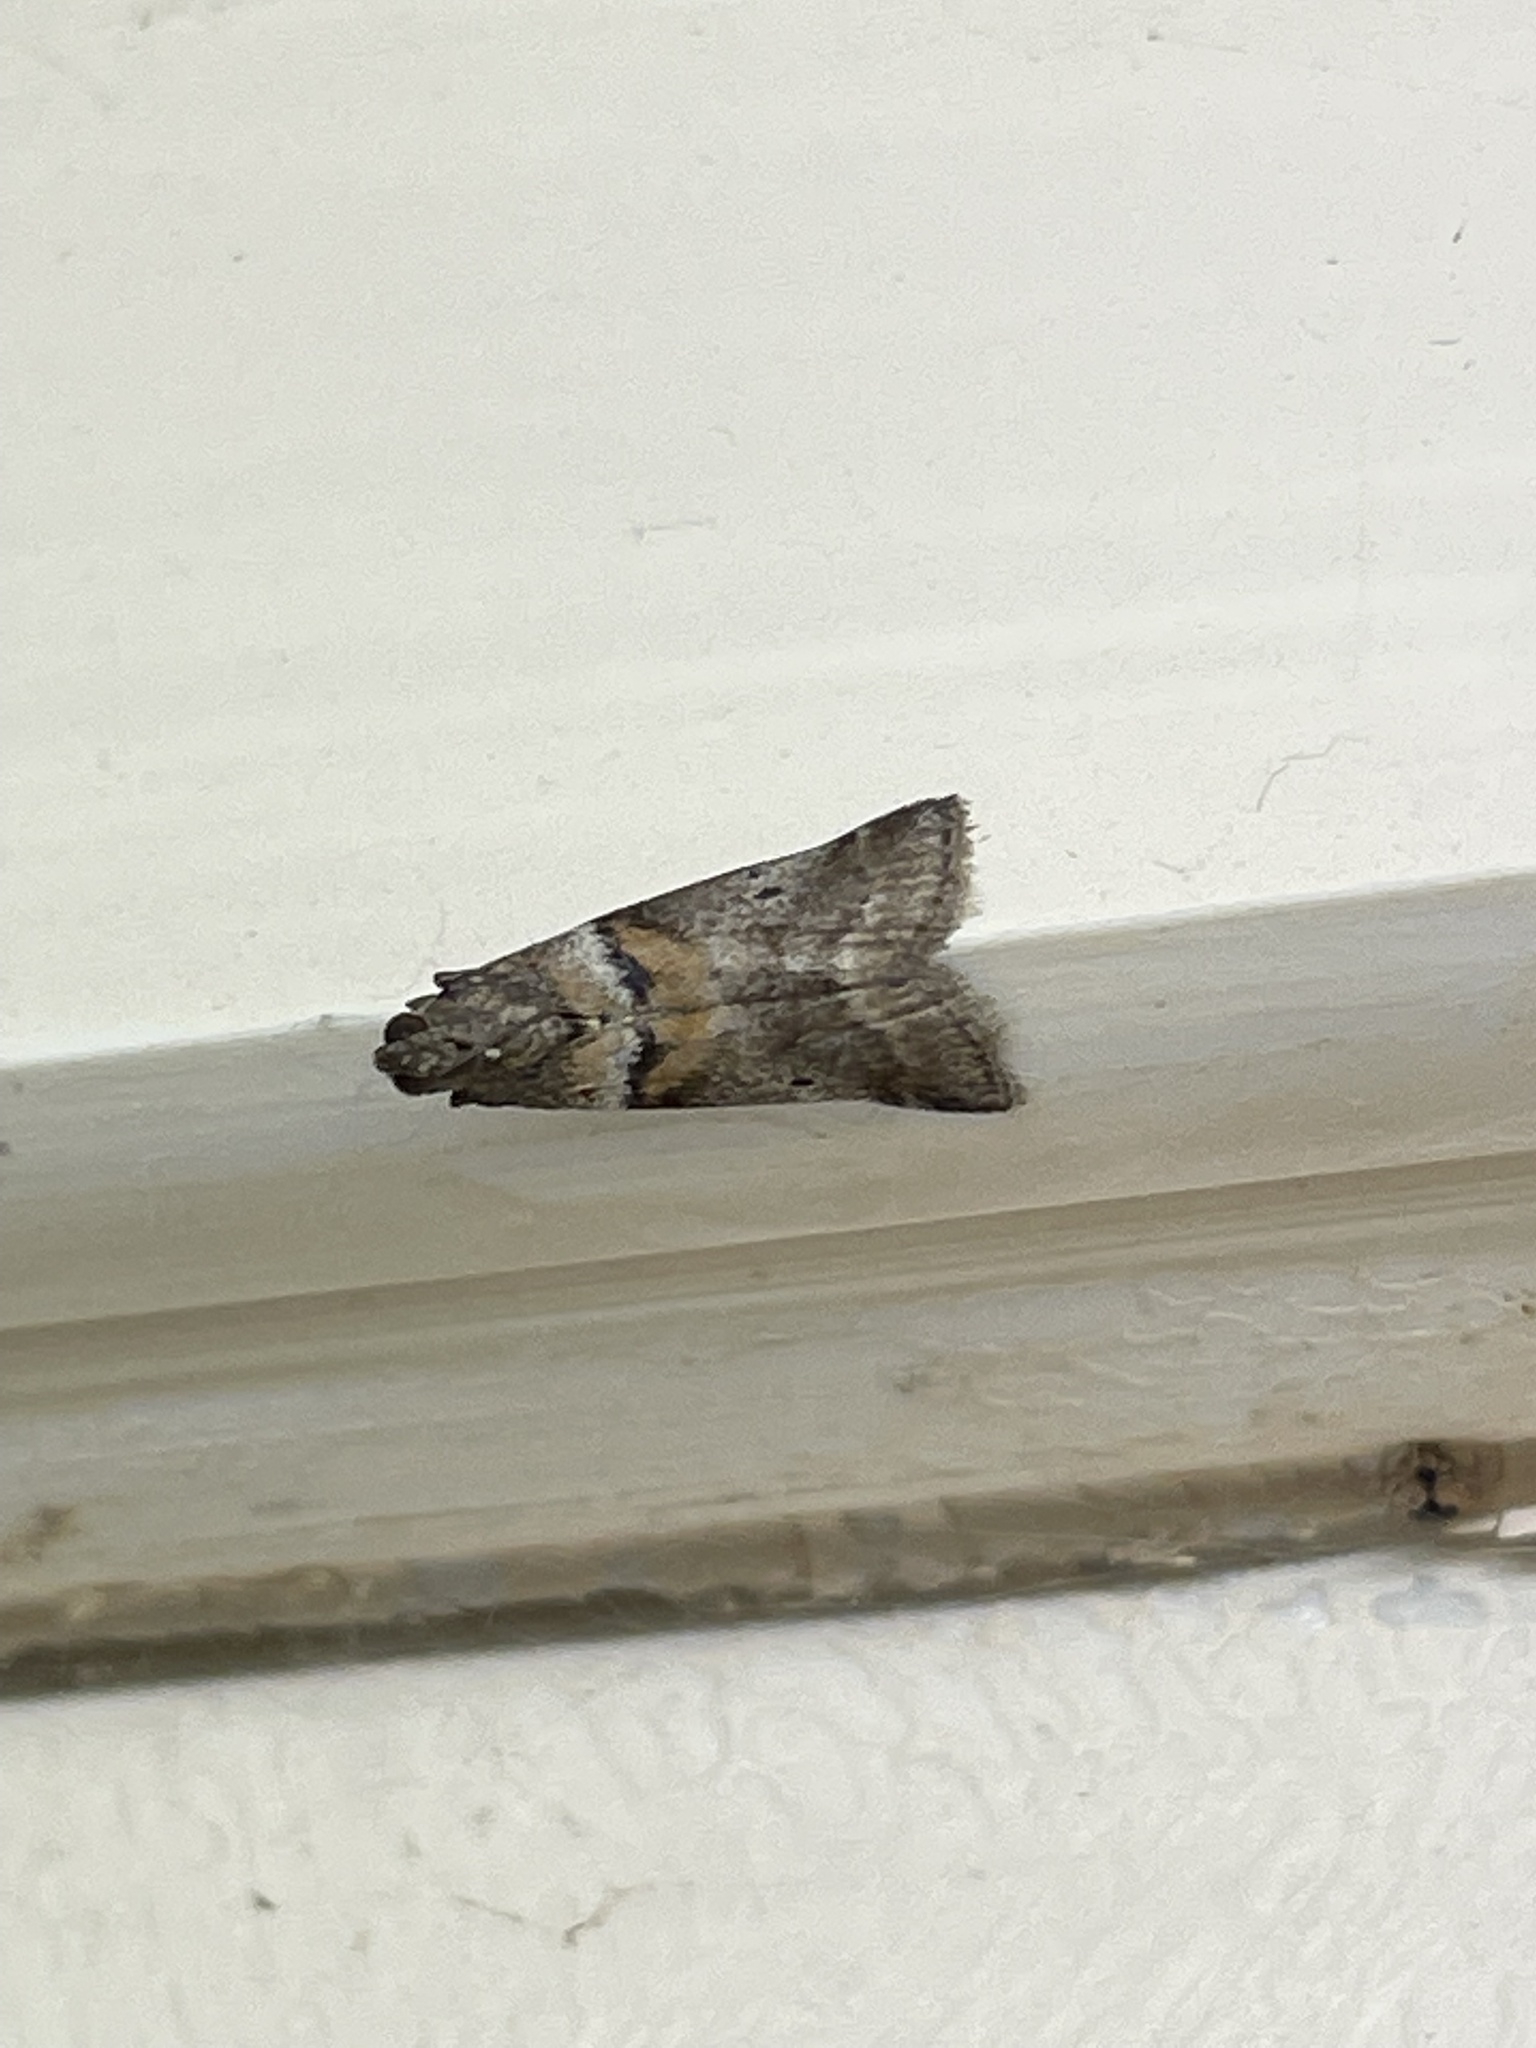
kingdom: Animalia
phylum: Arthropoda
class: Insecta
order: Lepidoptera
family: Pyralidae
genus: Acrobasis
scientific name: Acrobasis consociella
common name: Broad-barred knot-horn
